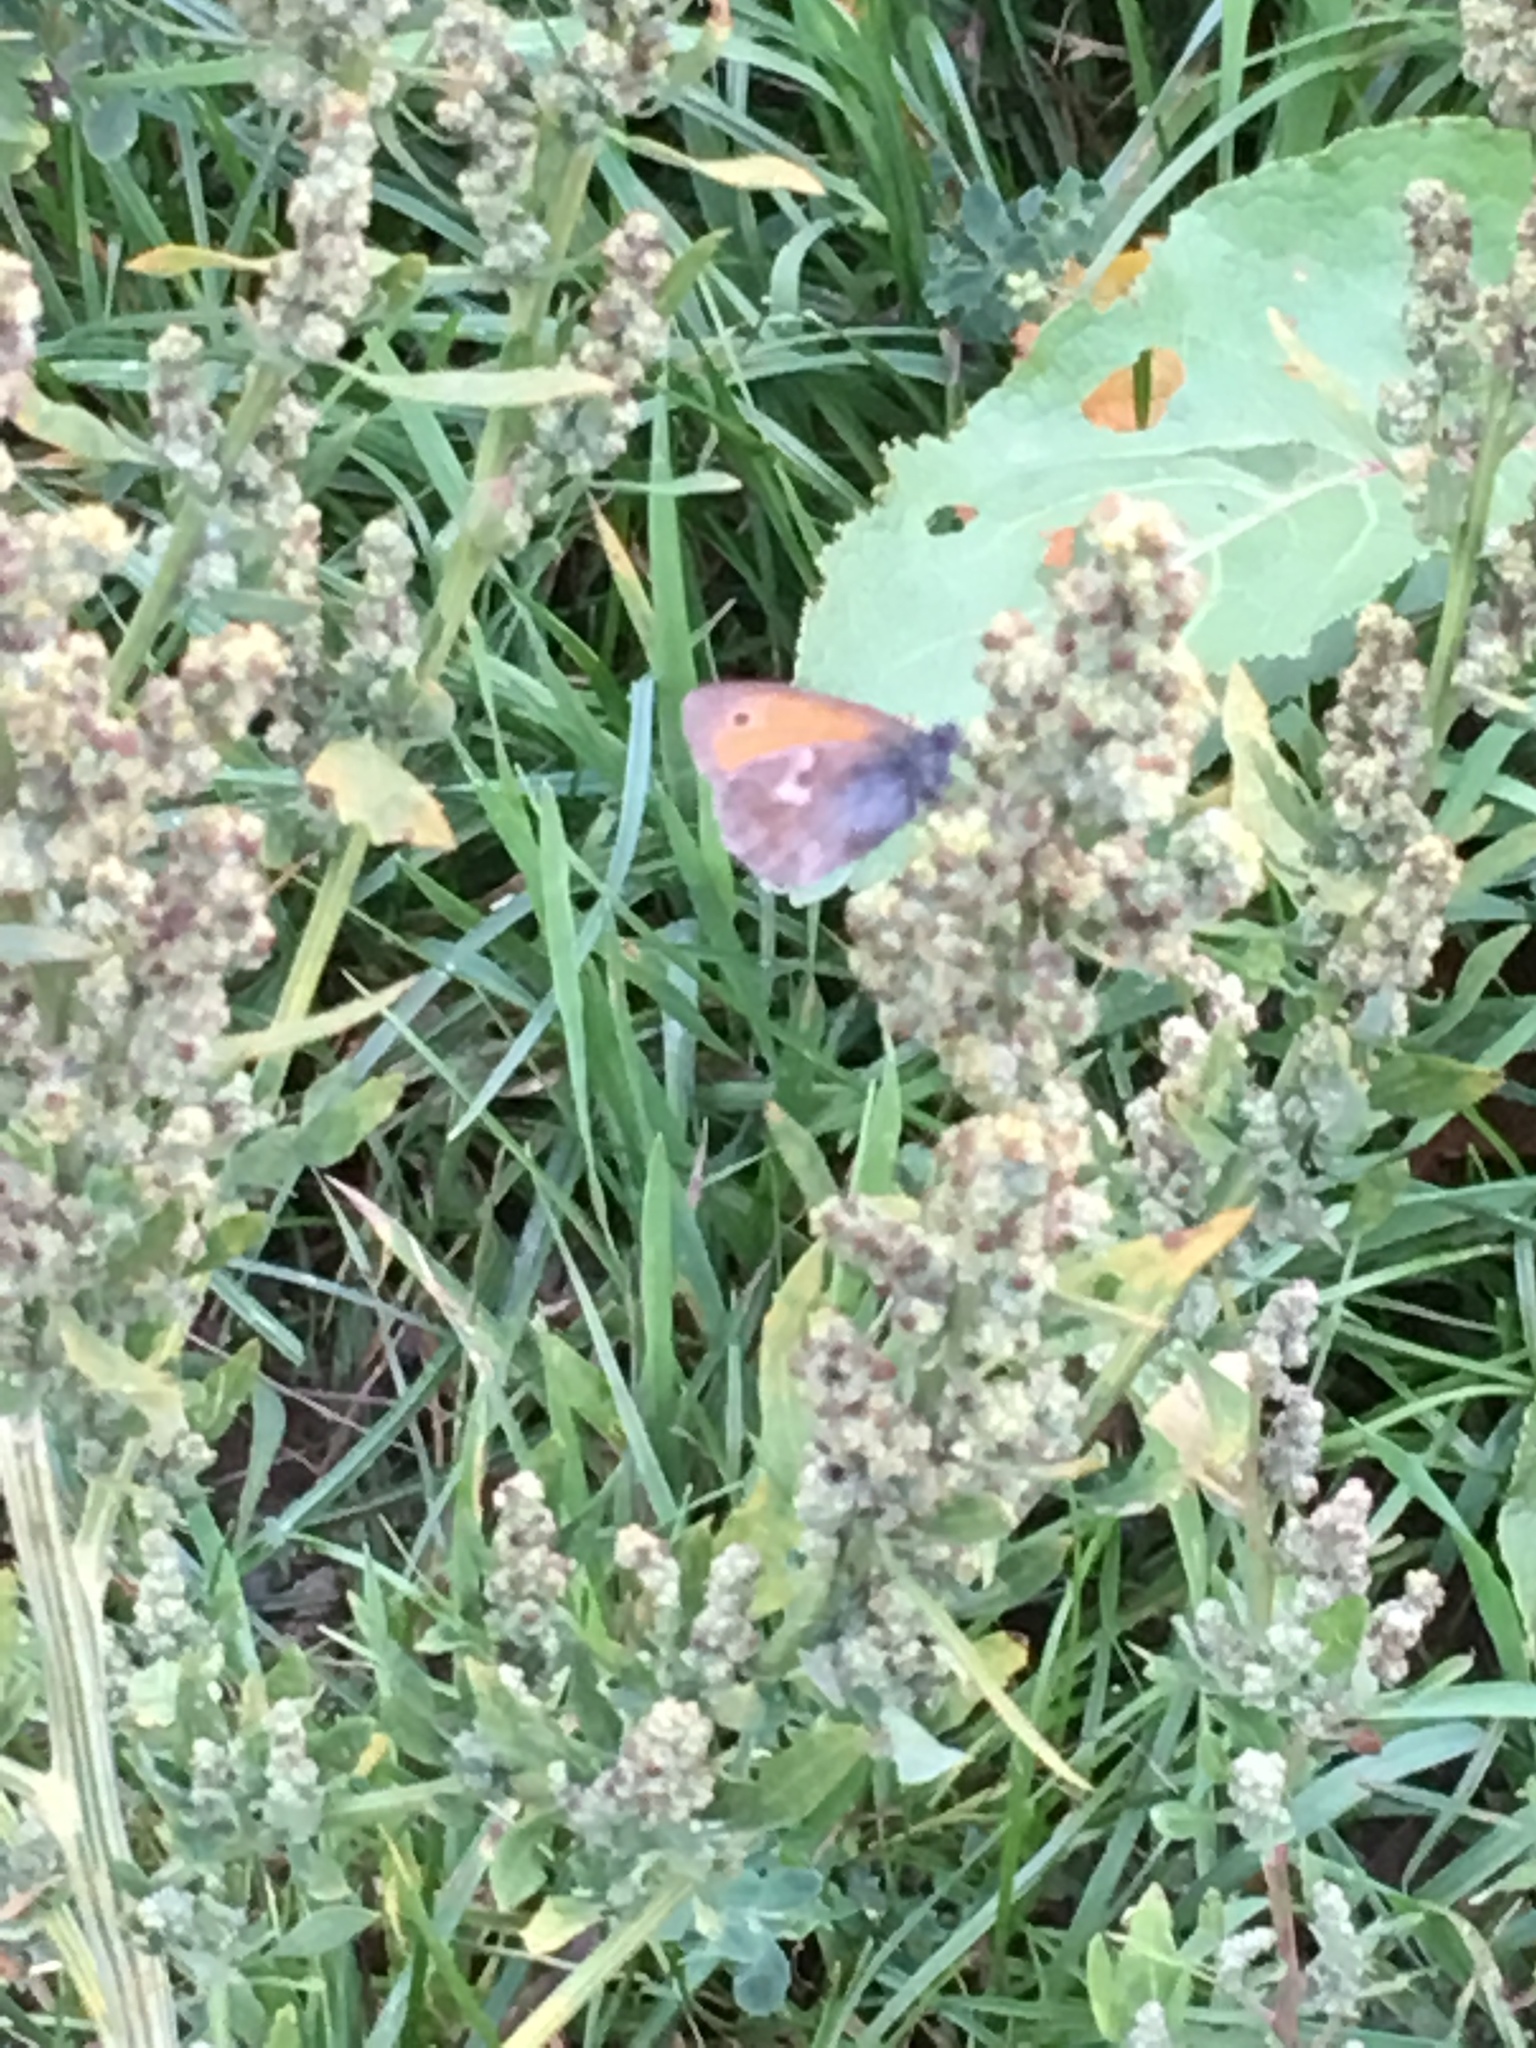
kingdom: Animalia
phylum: Arthropoda
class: Insecta
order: Lepidoptera
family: Nymphalidae
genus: Coenonympha
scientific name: Coenonympha pamphilus
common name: Small heath
